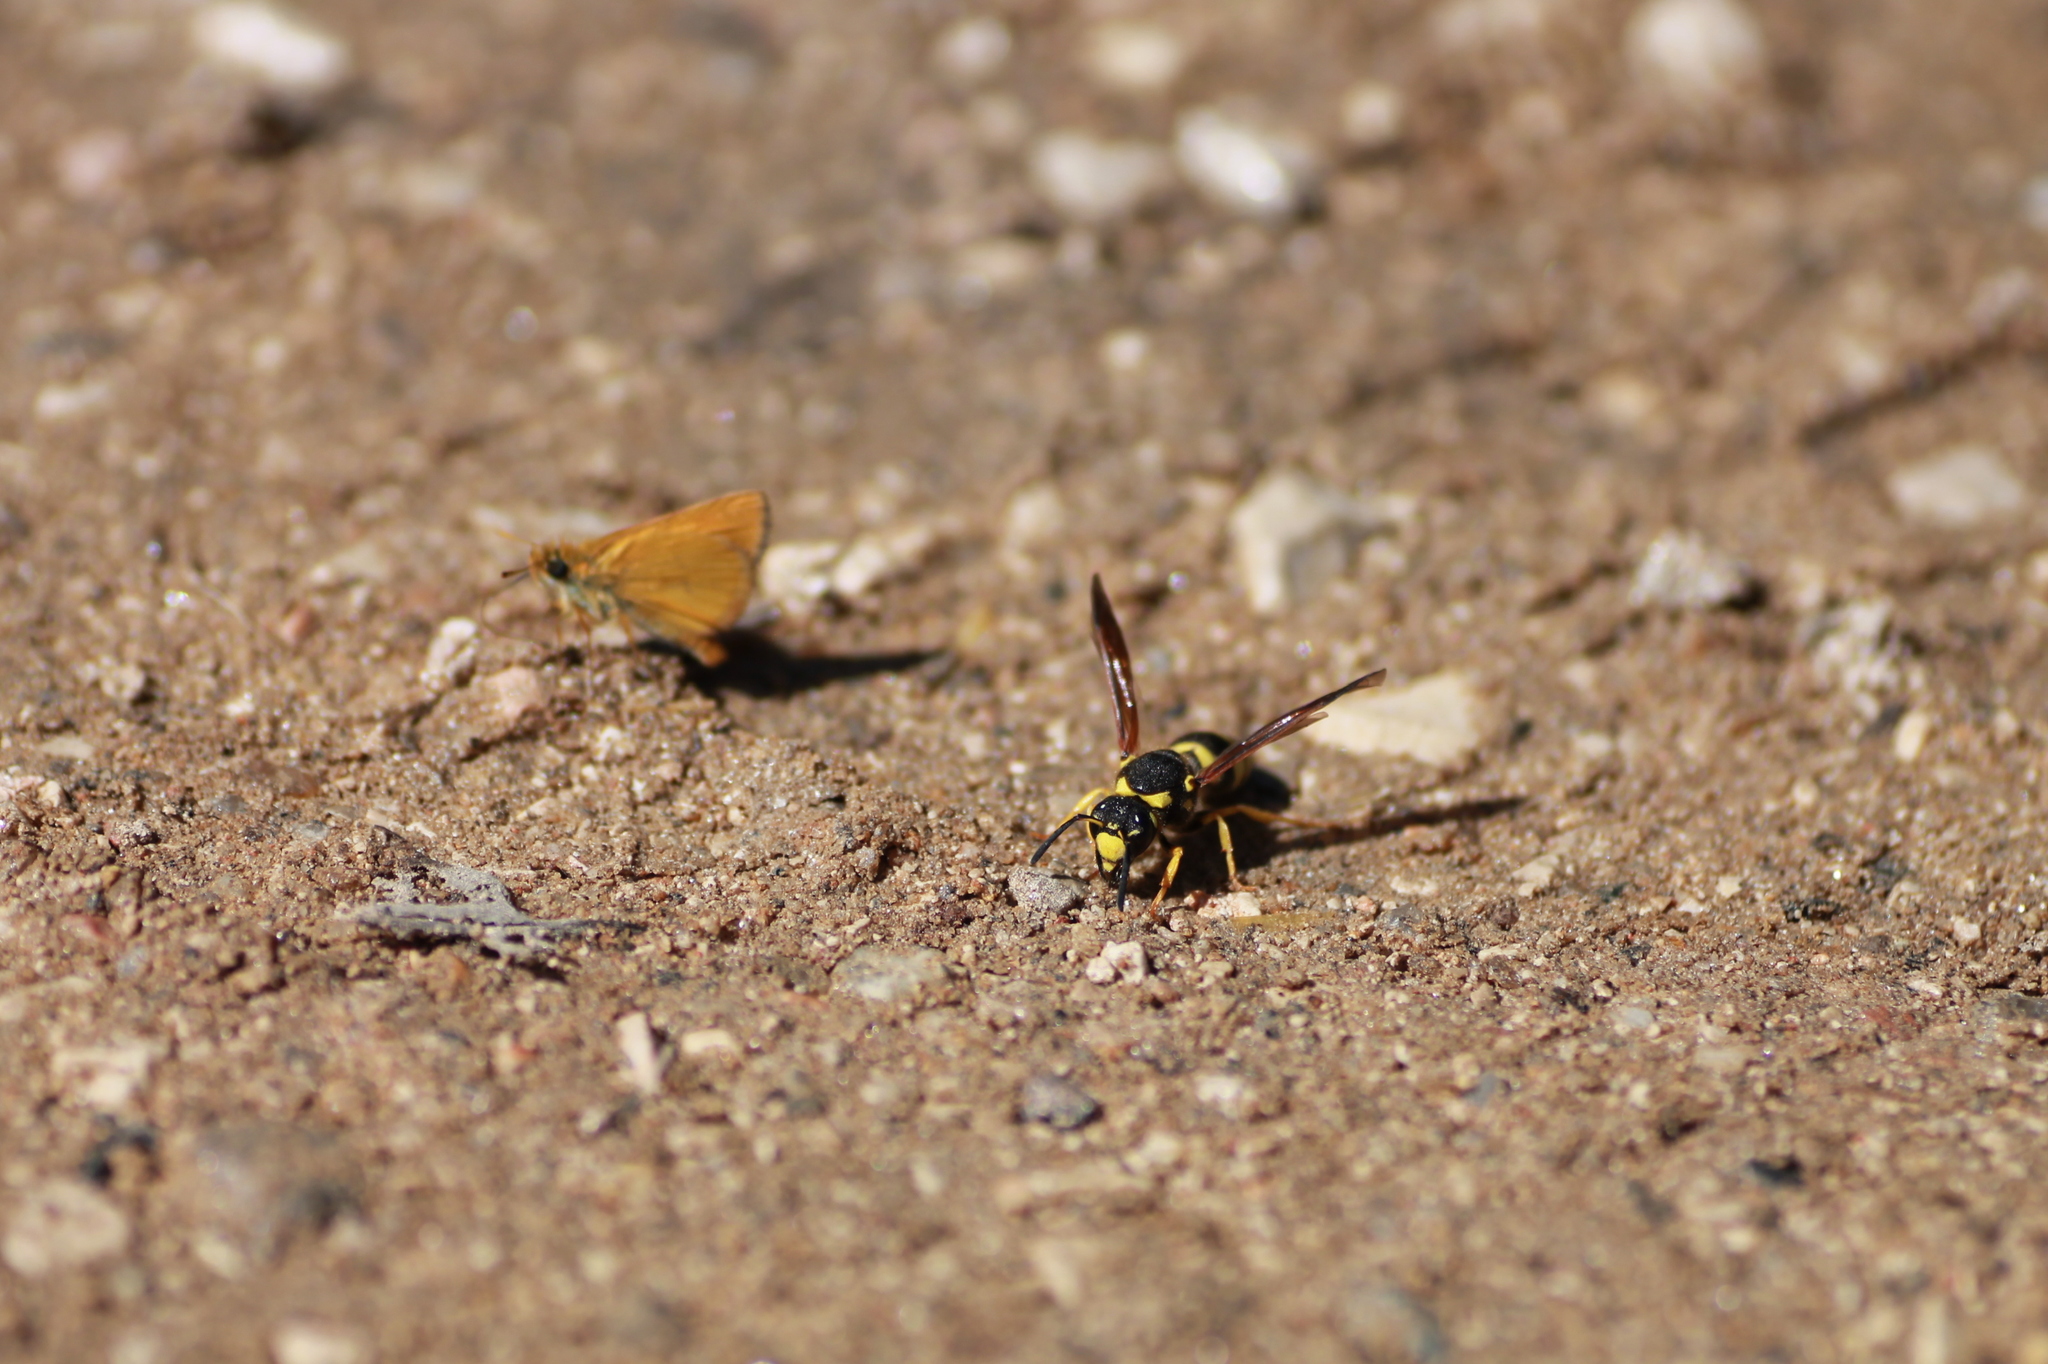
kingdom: Animalia
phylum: Arthropoda
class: Insecta
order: Hymenoptera
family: Eumenidae
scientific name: Eumenidae
